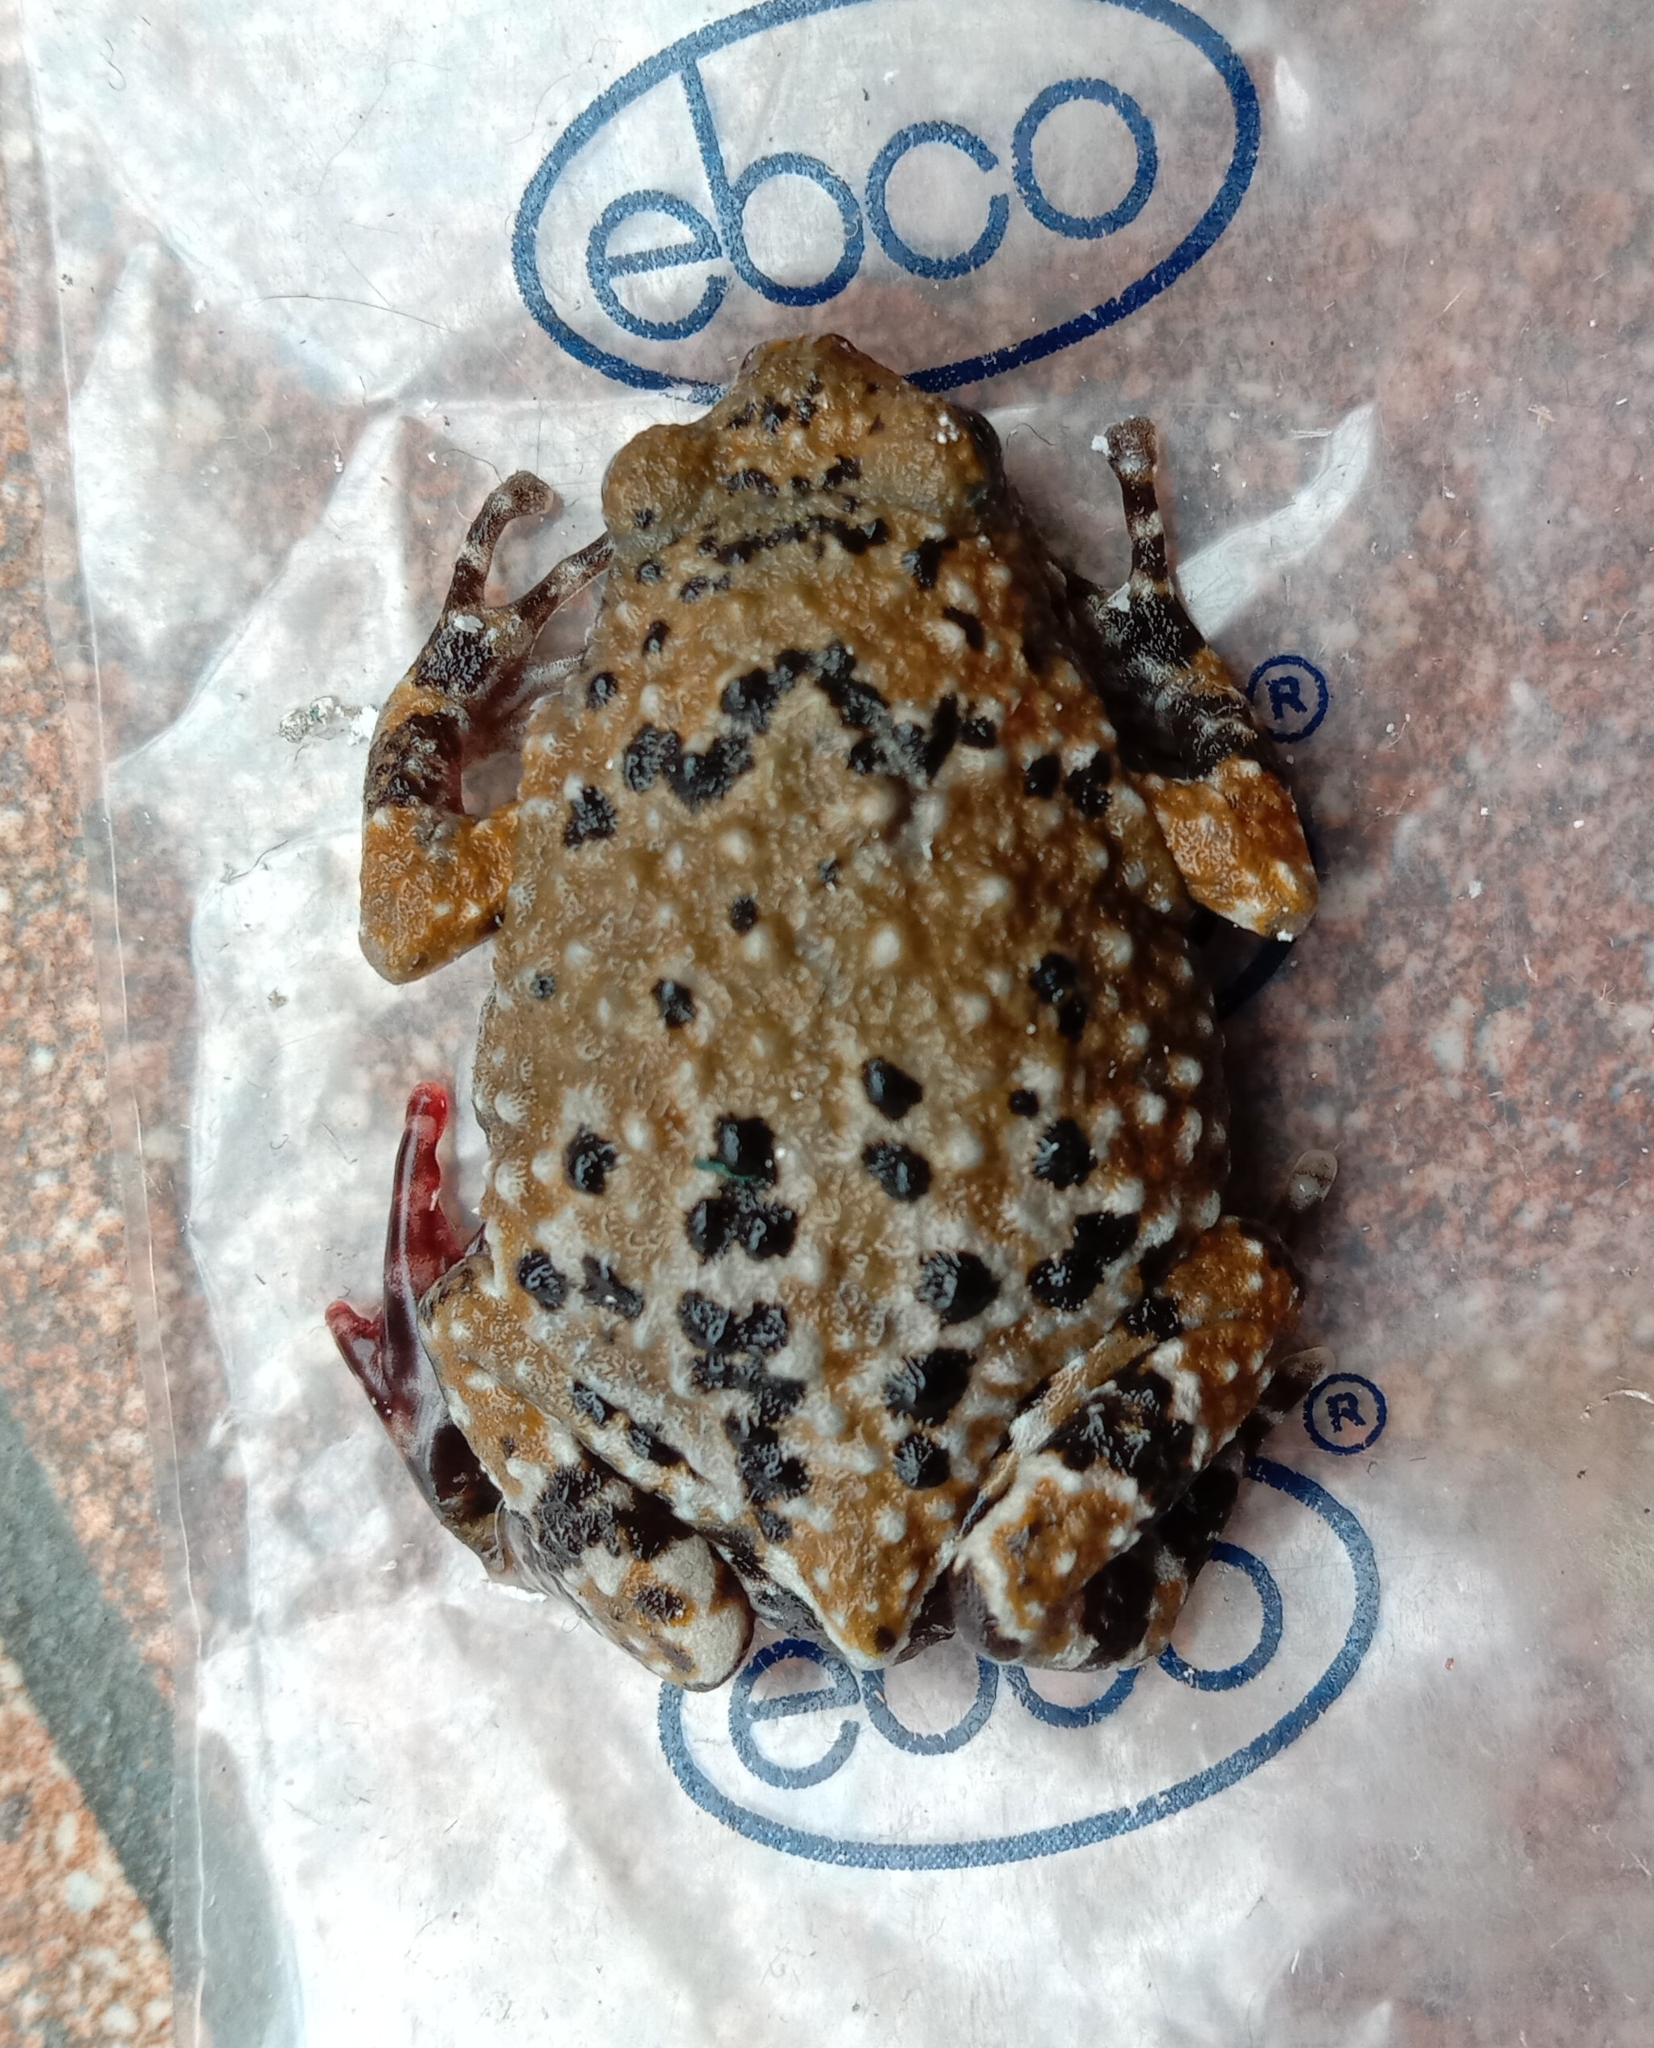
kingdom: Animalia
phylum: Chordata
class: Amphibia
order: Anura
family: Microhylidae
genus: Uperodon
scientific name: Uperodon mormoratus
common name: Indian dot frog
